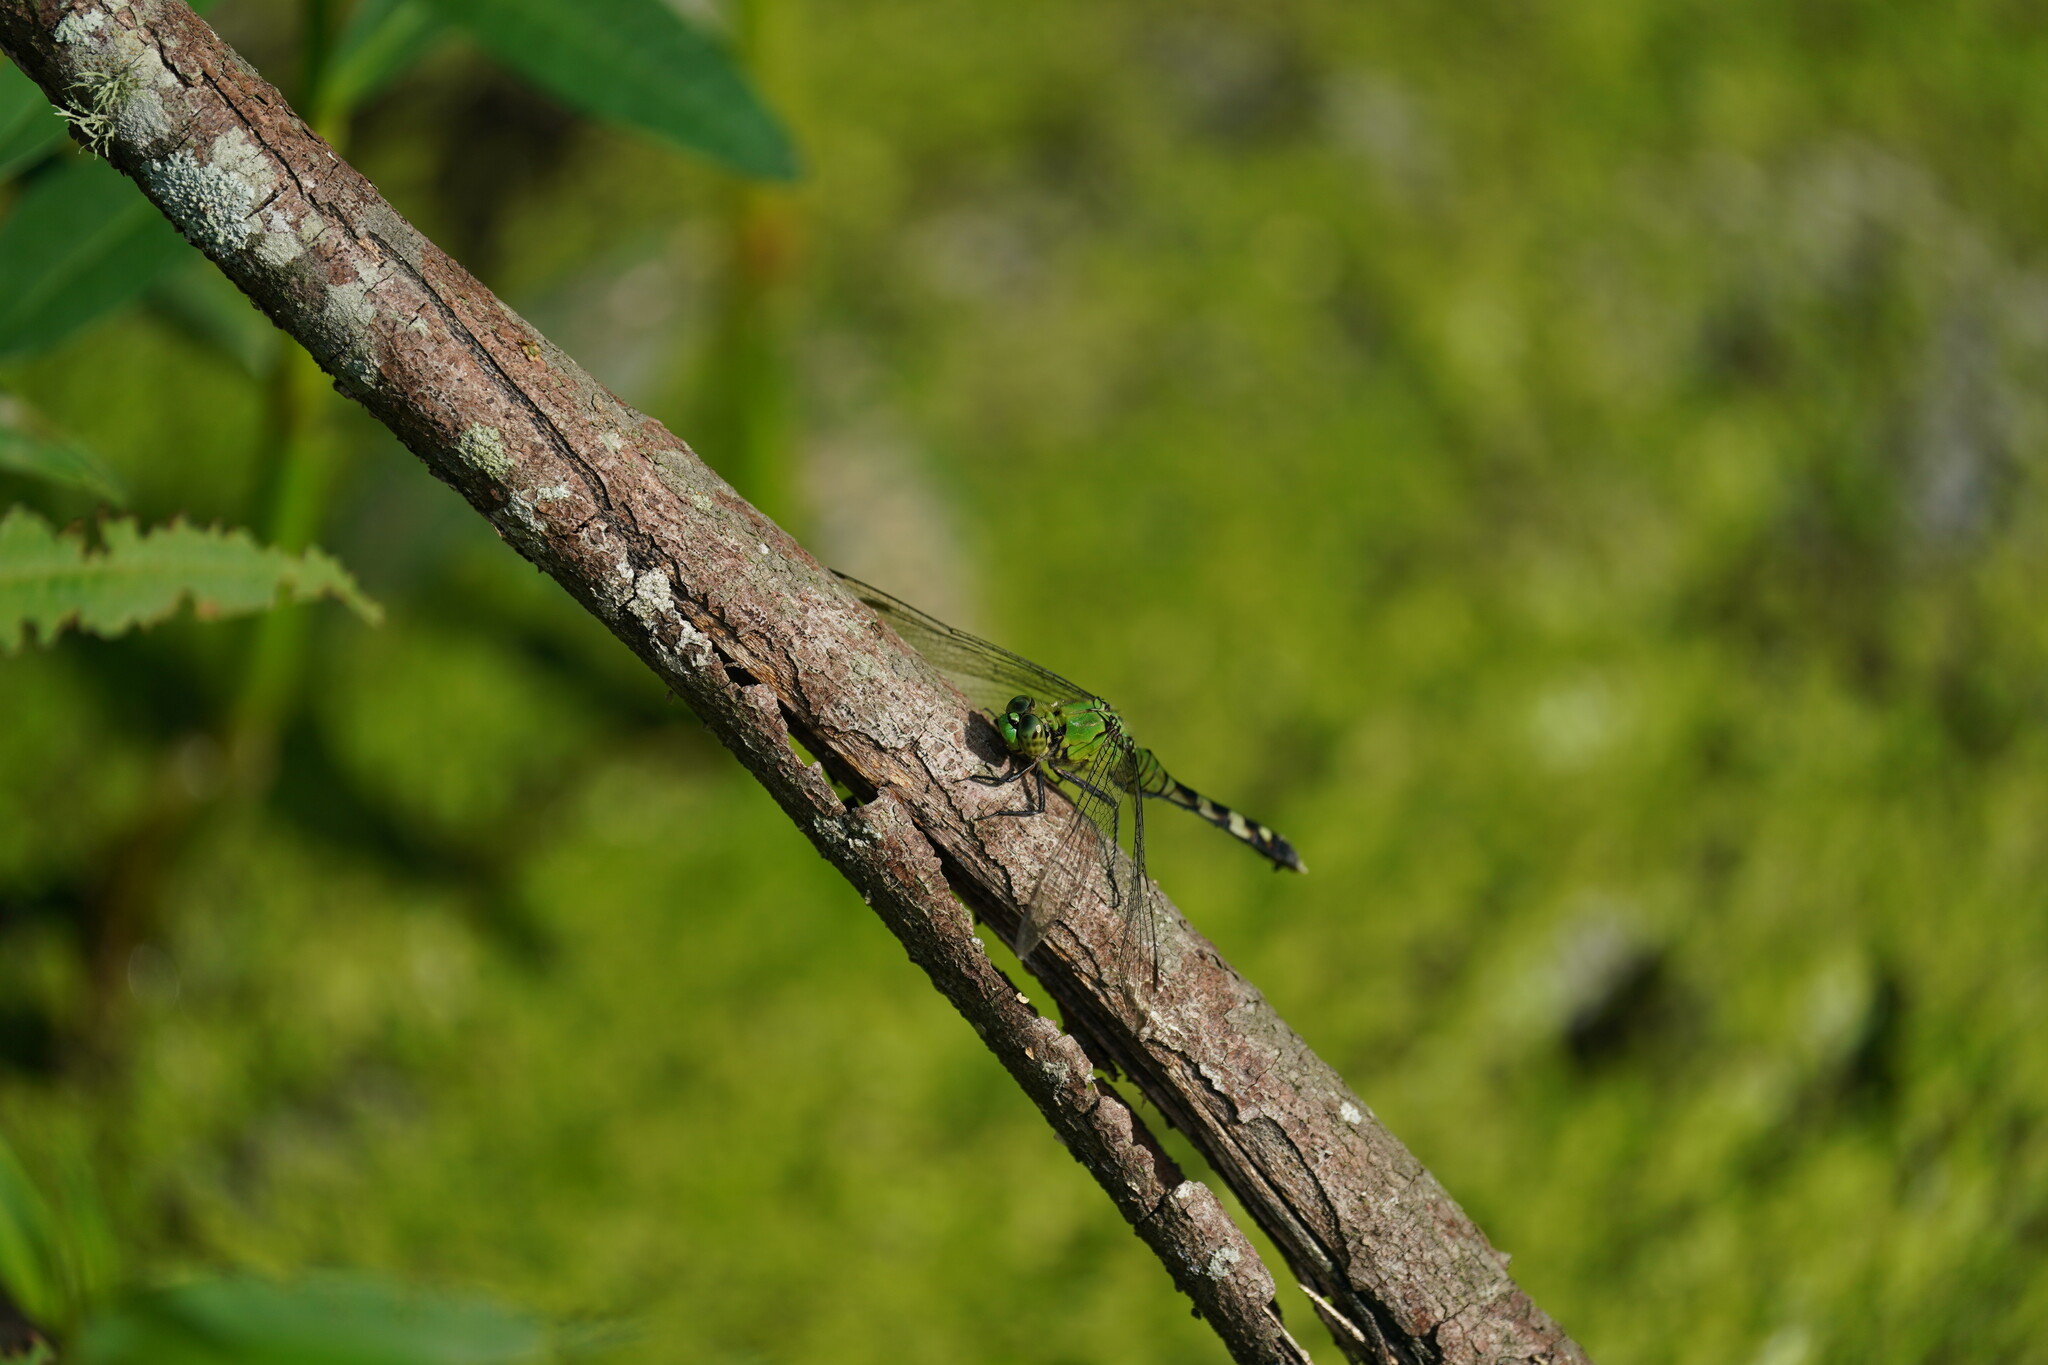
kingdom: Animalia
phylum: Arthropoda
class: Insecta
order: Odonata
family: Libellulidae
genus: Erythemis
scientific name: Erythemis simplicicollis
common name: Eastern pondhawk
